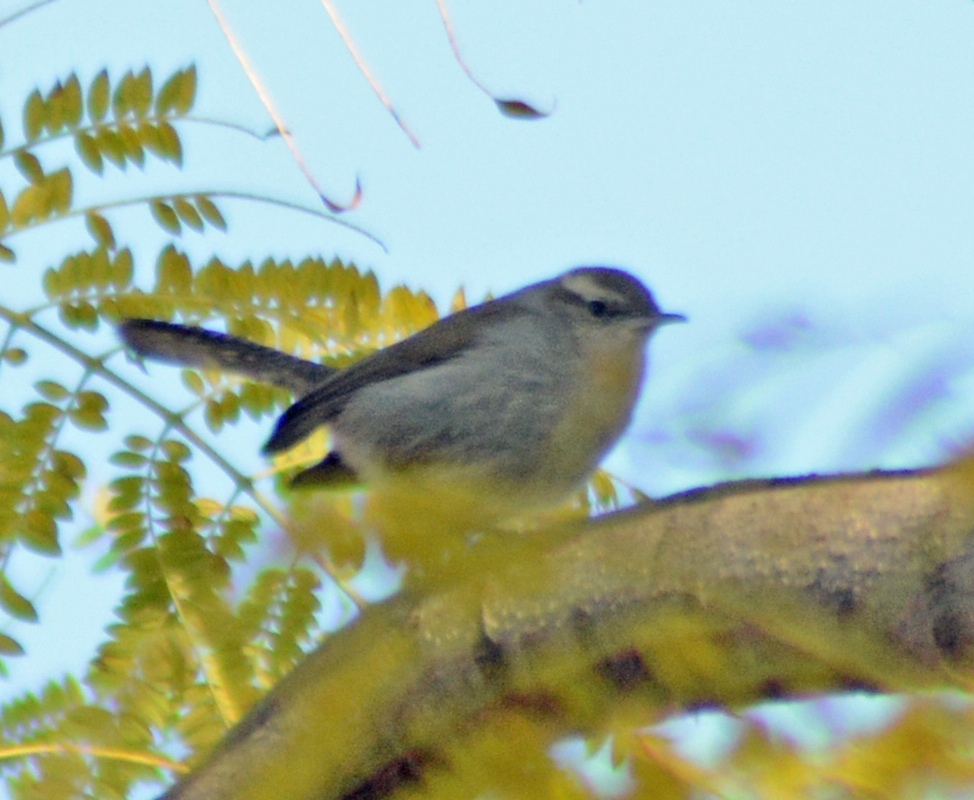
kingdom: Animalia
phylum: Chordata
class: Aves
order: Passeriformes
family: Troglodytidae
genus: Thryomanes
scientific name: Thryomanes bewickii
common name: Bewick's wren
